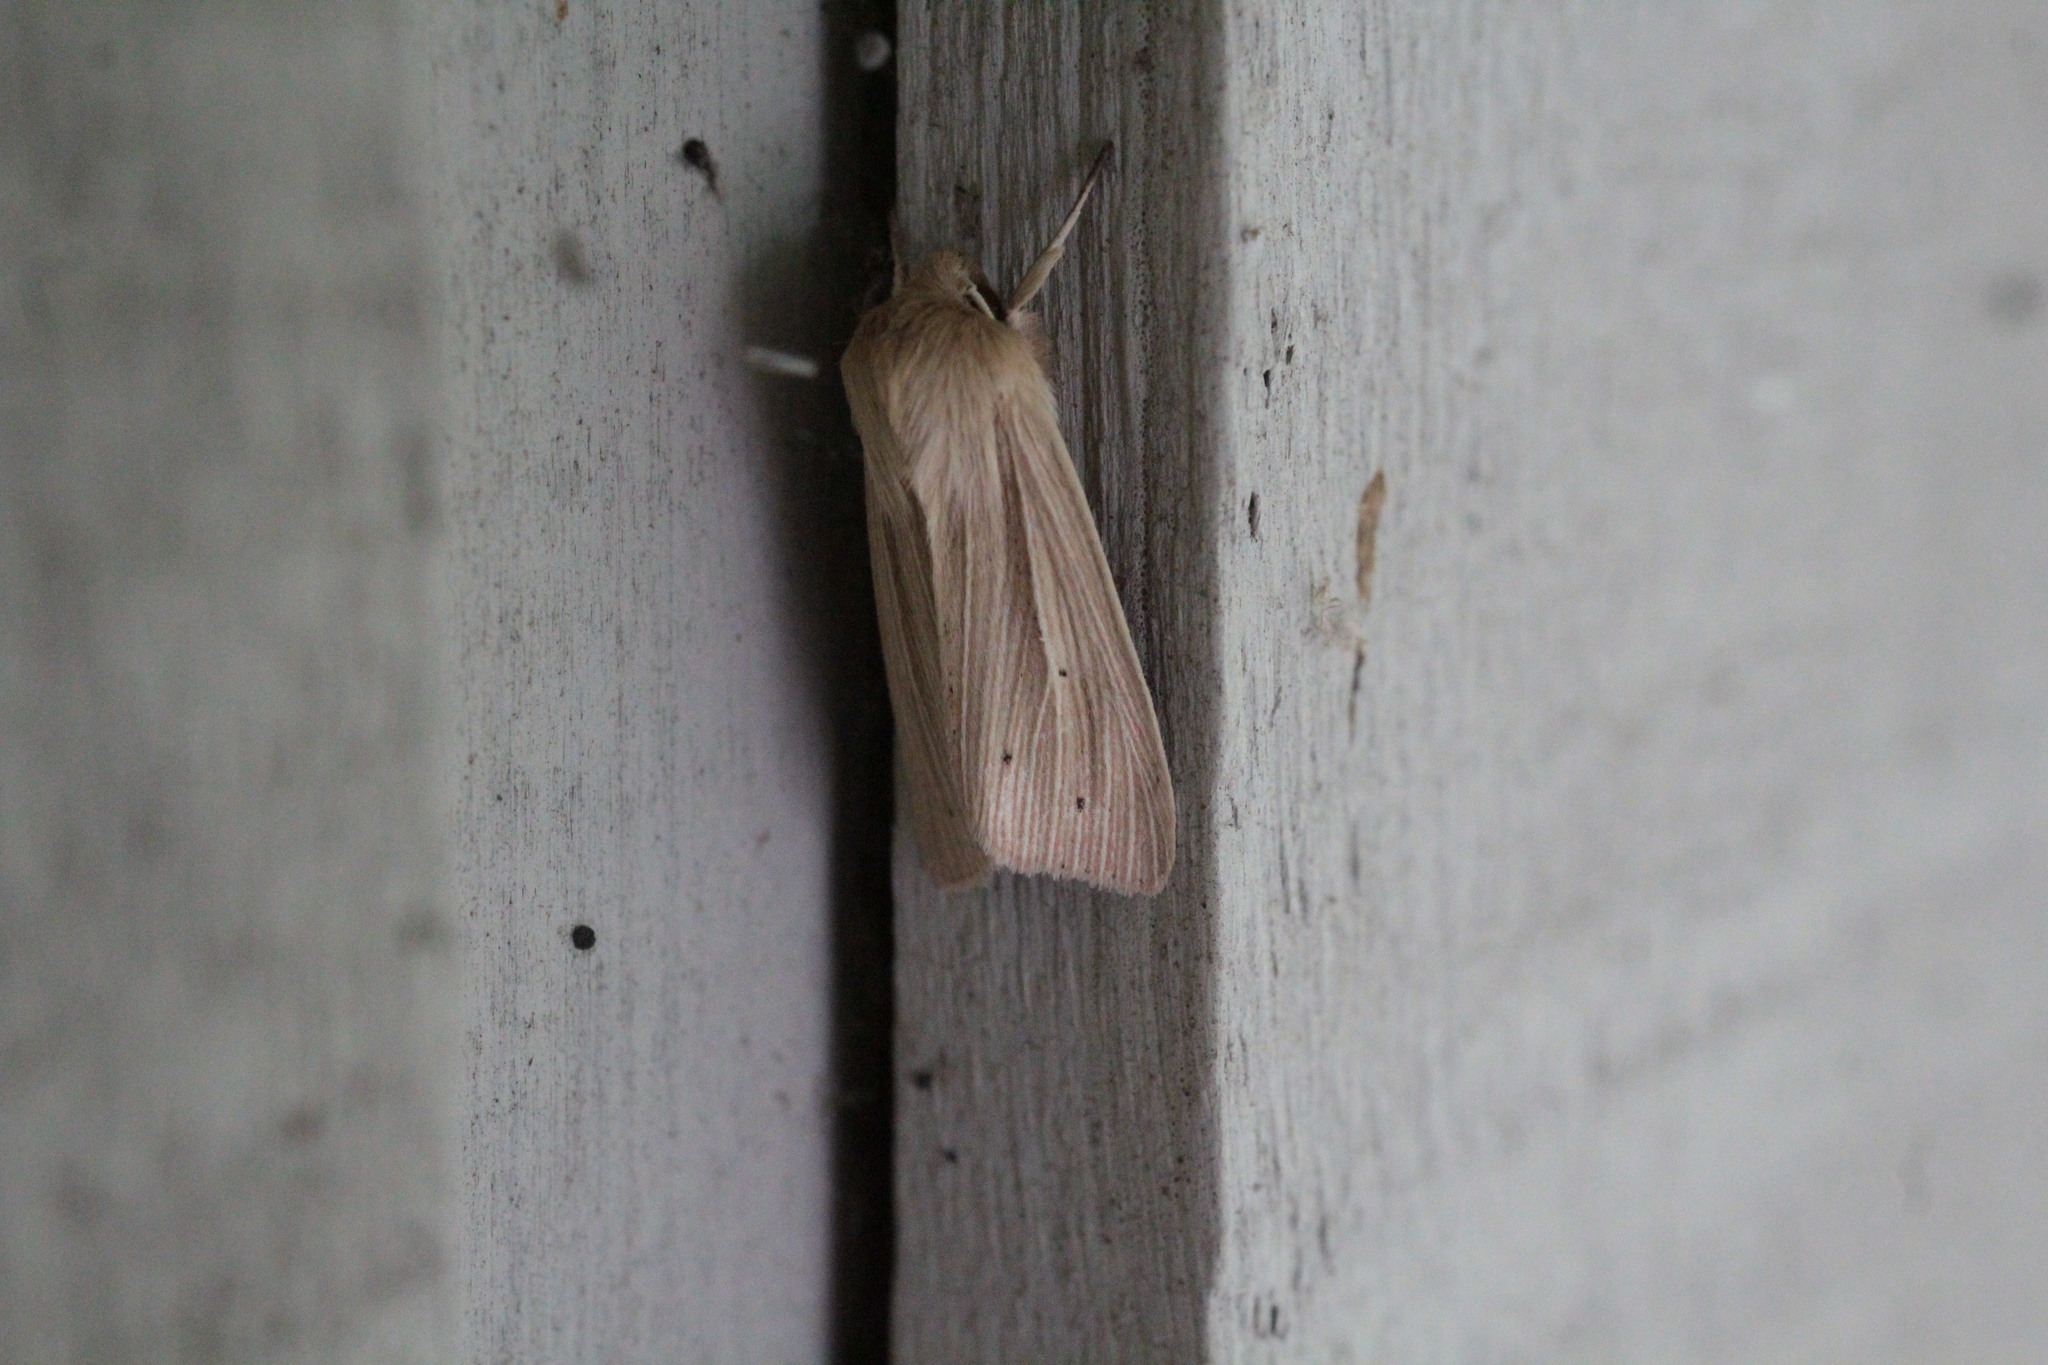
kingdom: Animalia
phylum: Arthropoda
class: Insecta
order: Lepidoptera
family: Noctuidae
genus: Mythimna
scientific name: Mythimna oxygala
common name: Lesser wainscot
